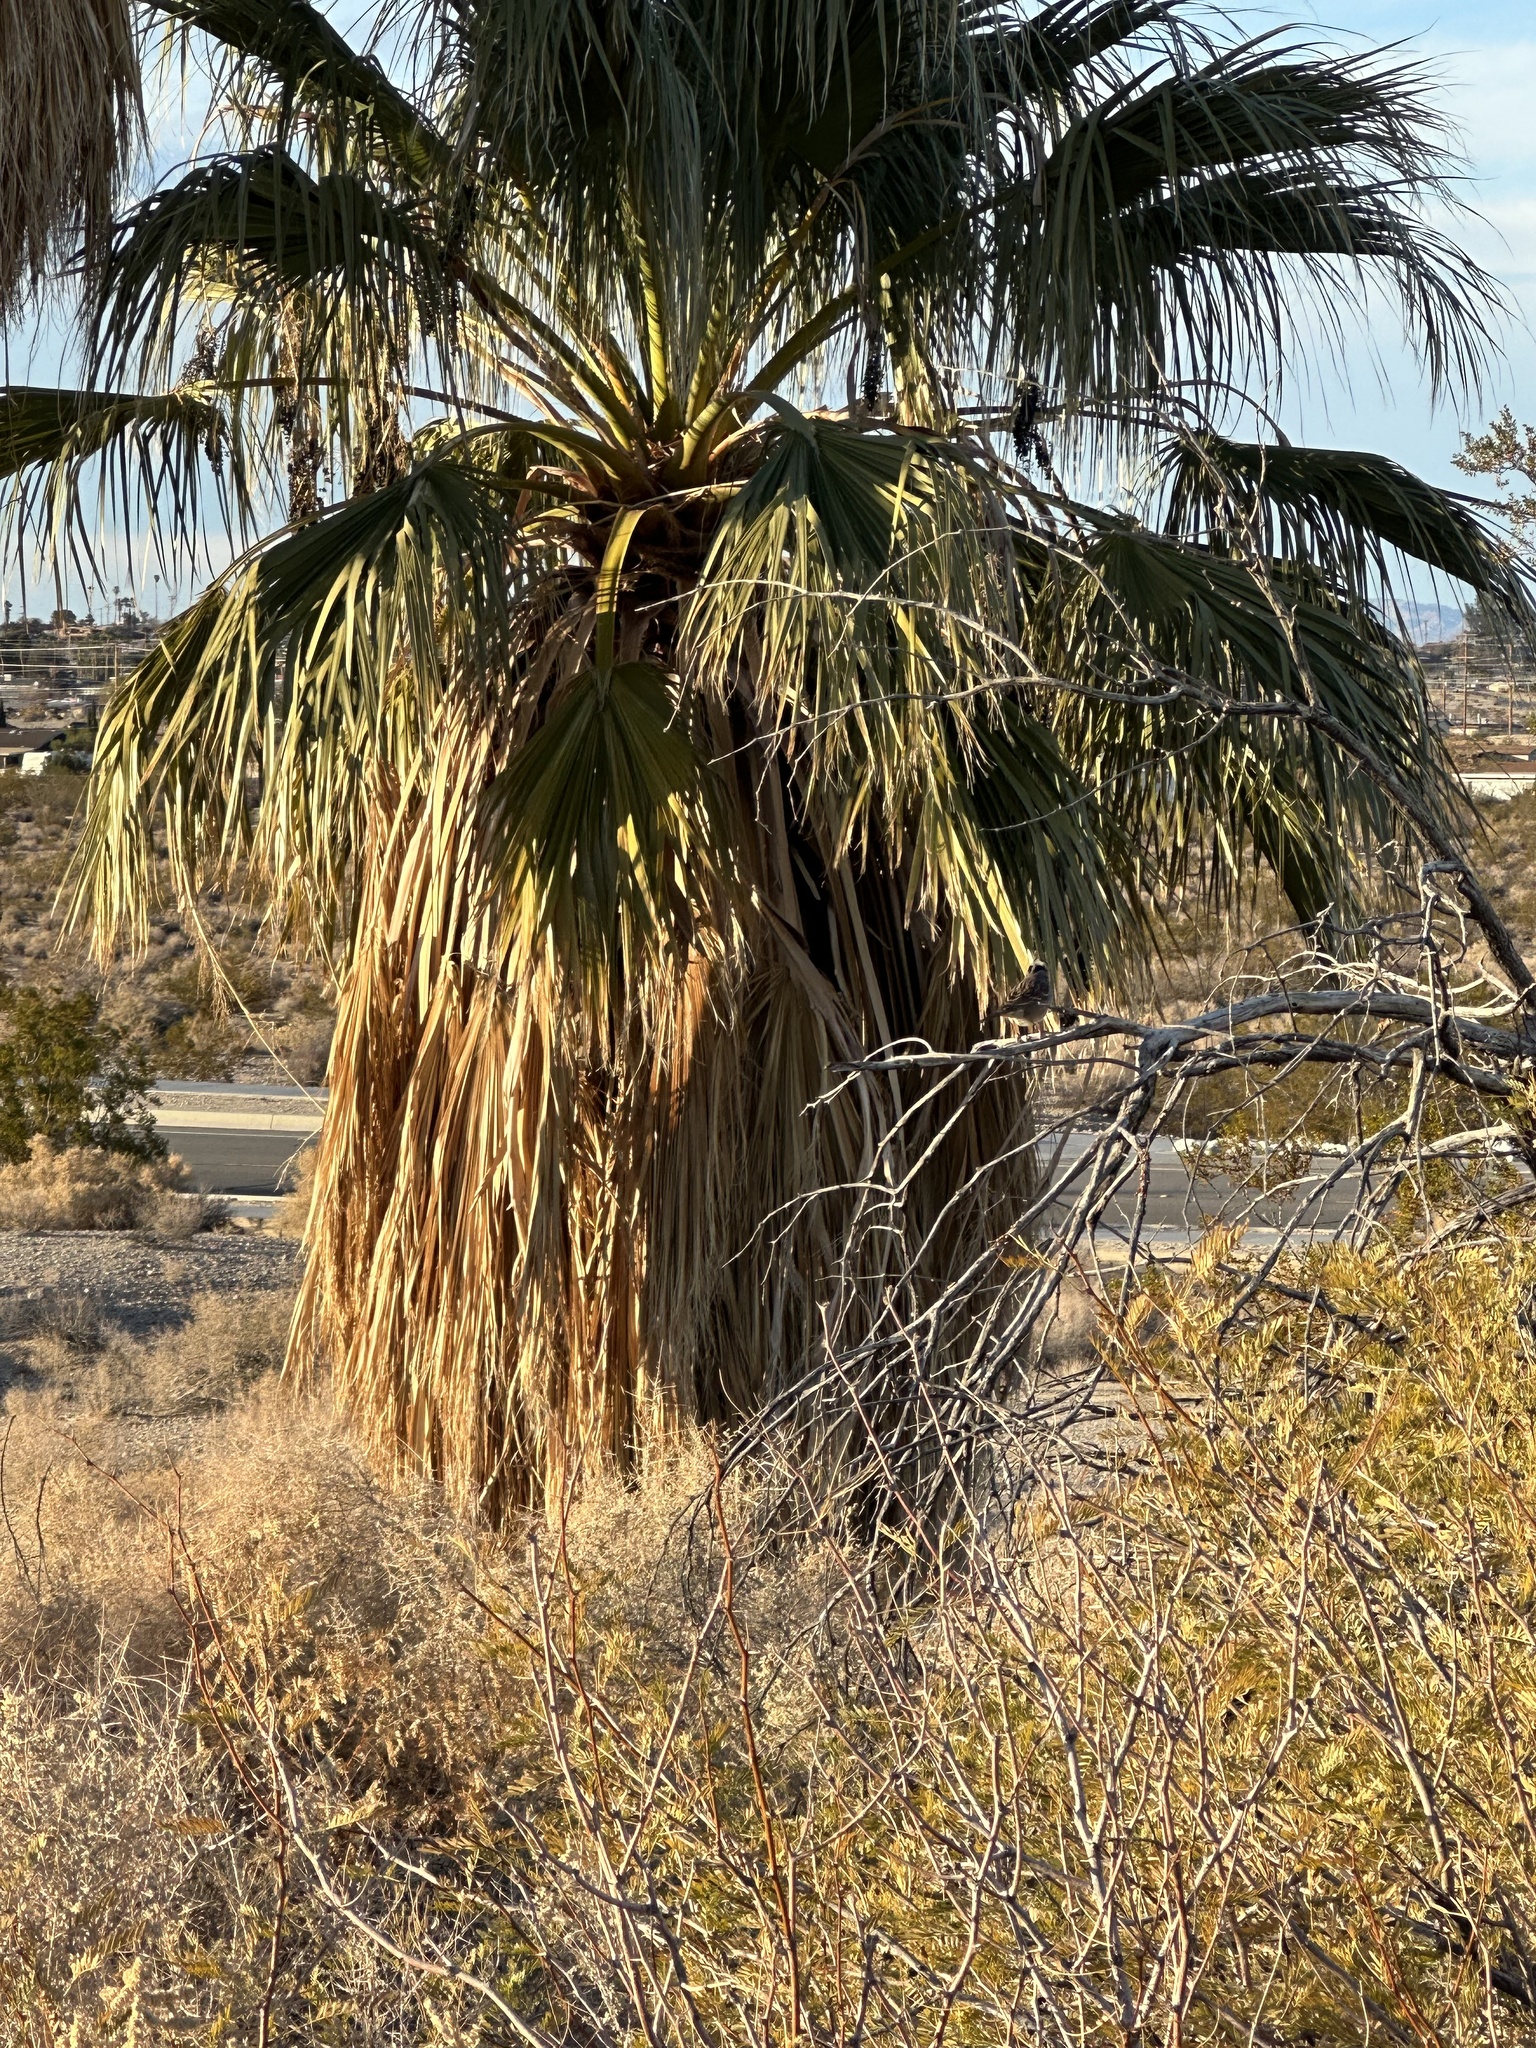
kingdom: Plantae
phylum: Tracheophyta
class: Liliopsida
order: Arecales
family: Arecaceae
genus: Washingtonia
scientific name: Washingtonia filifera
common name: California fan palm
